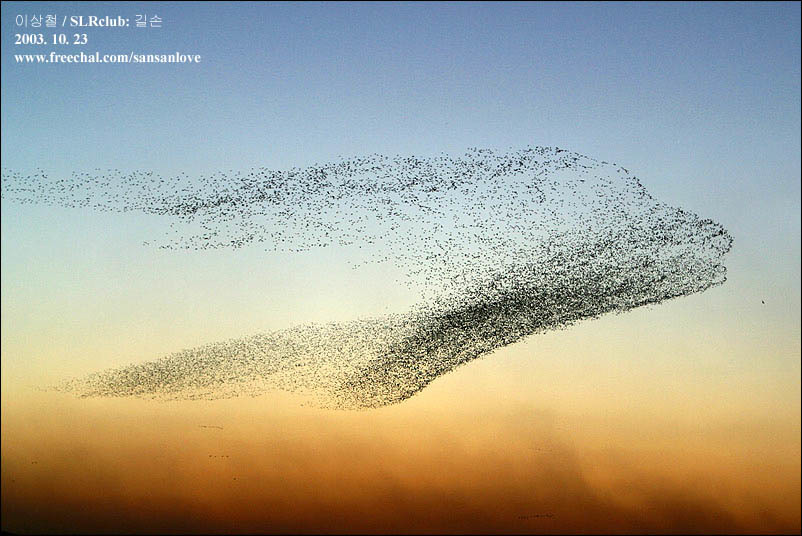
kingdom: Animalia
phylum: Chordata
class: Aves
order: Anseriformes
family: Anatidae
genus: Sibirionetta
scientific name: Sibirionetta formosa
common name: Baikal teal
